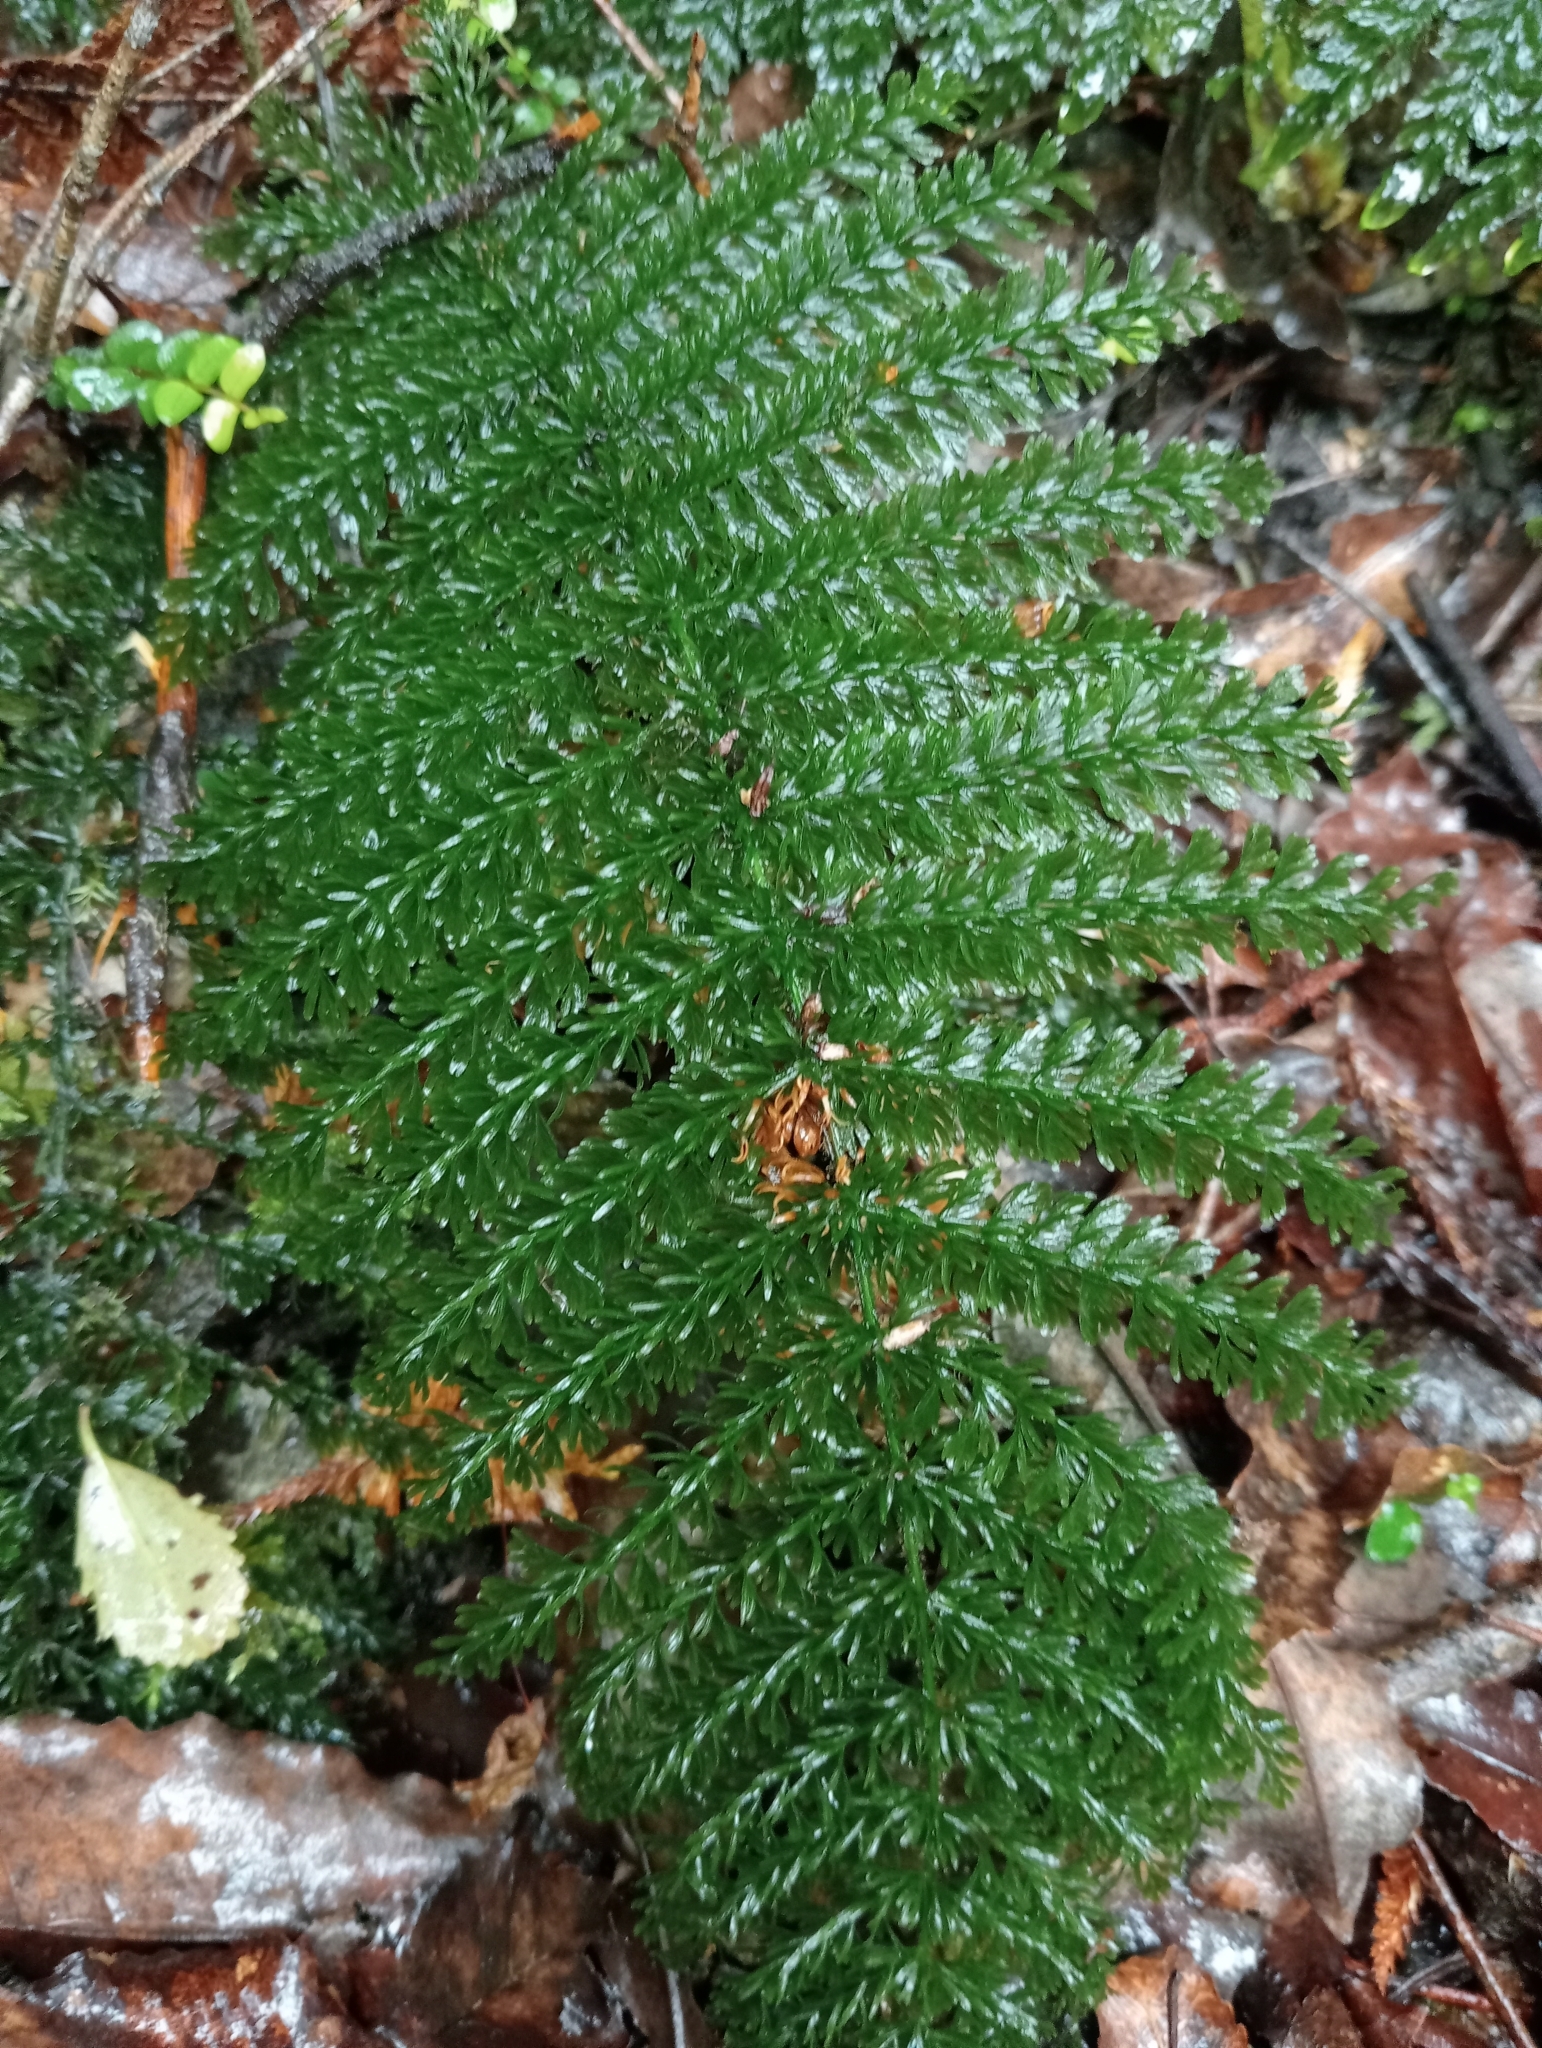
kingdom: Plantae
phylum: Tracheophyta
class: Polypodiopsida
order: Osmundales
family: Osmundaceae
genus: Leptopteris
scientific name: Leptopteris superba
